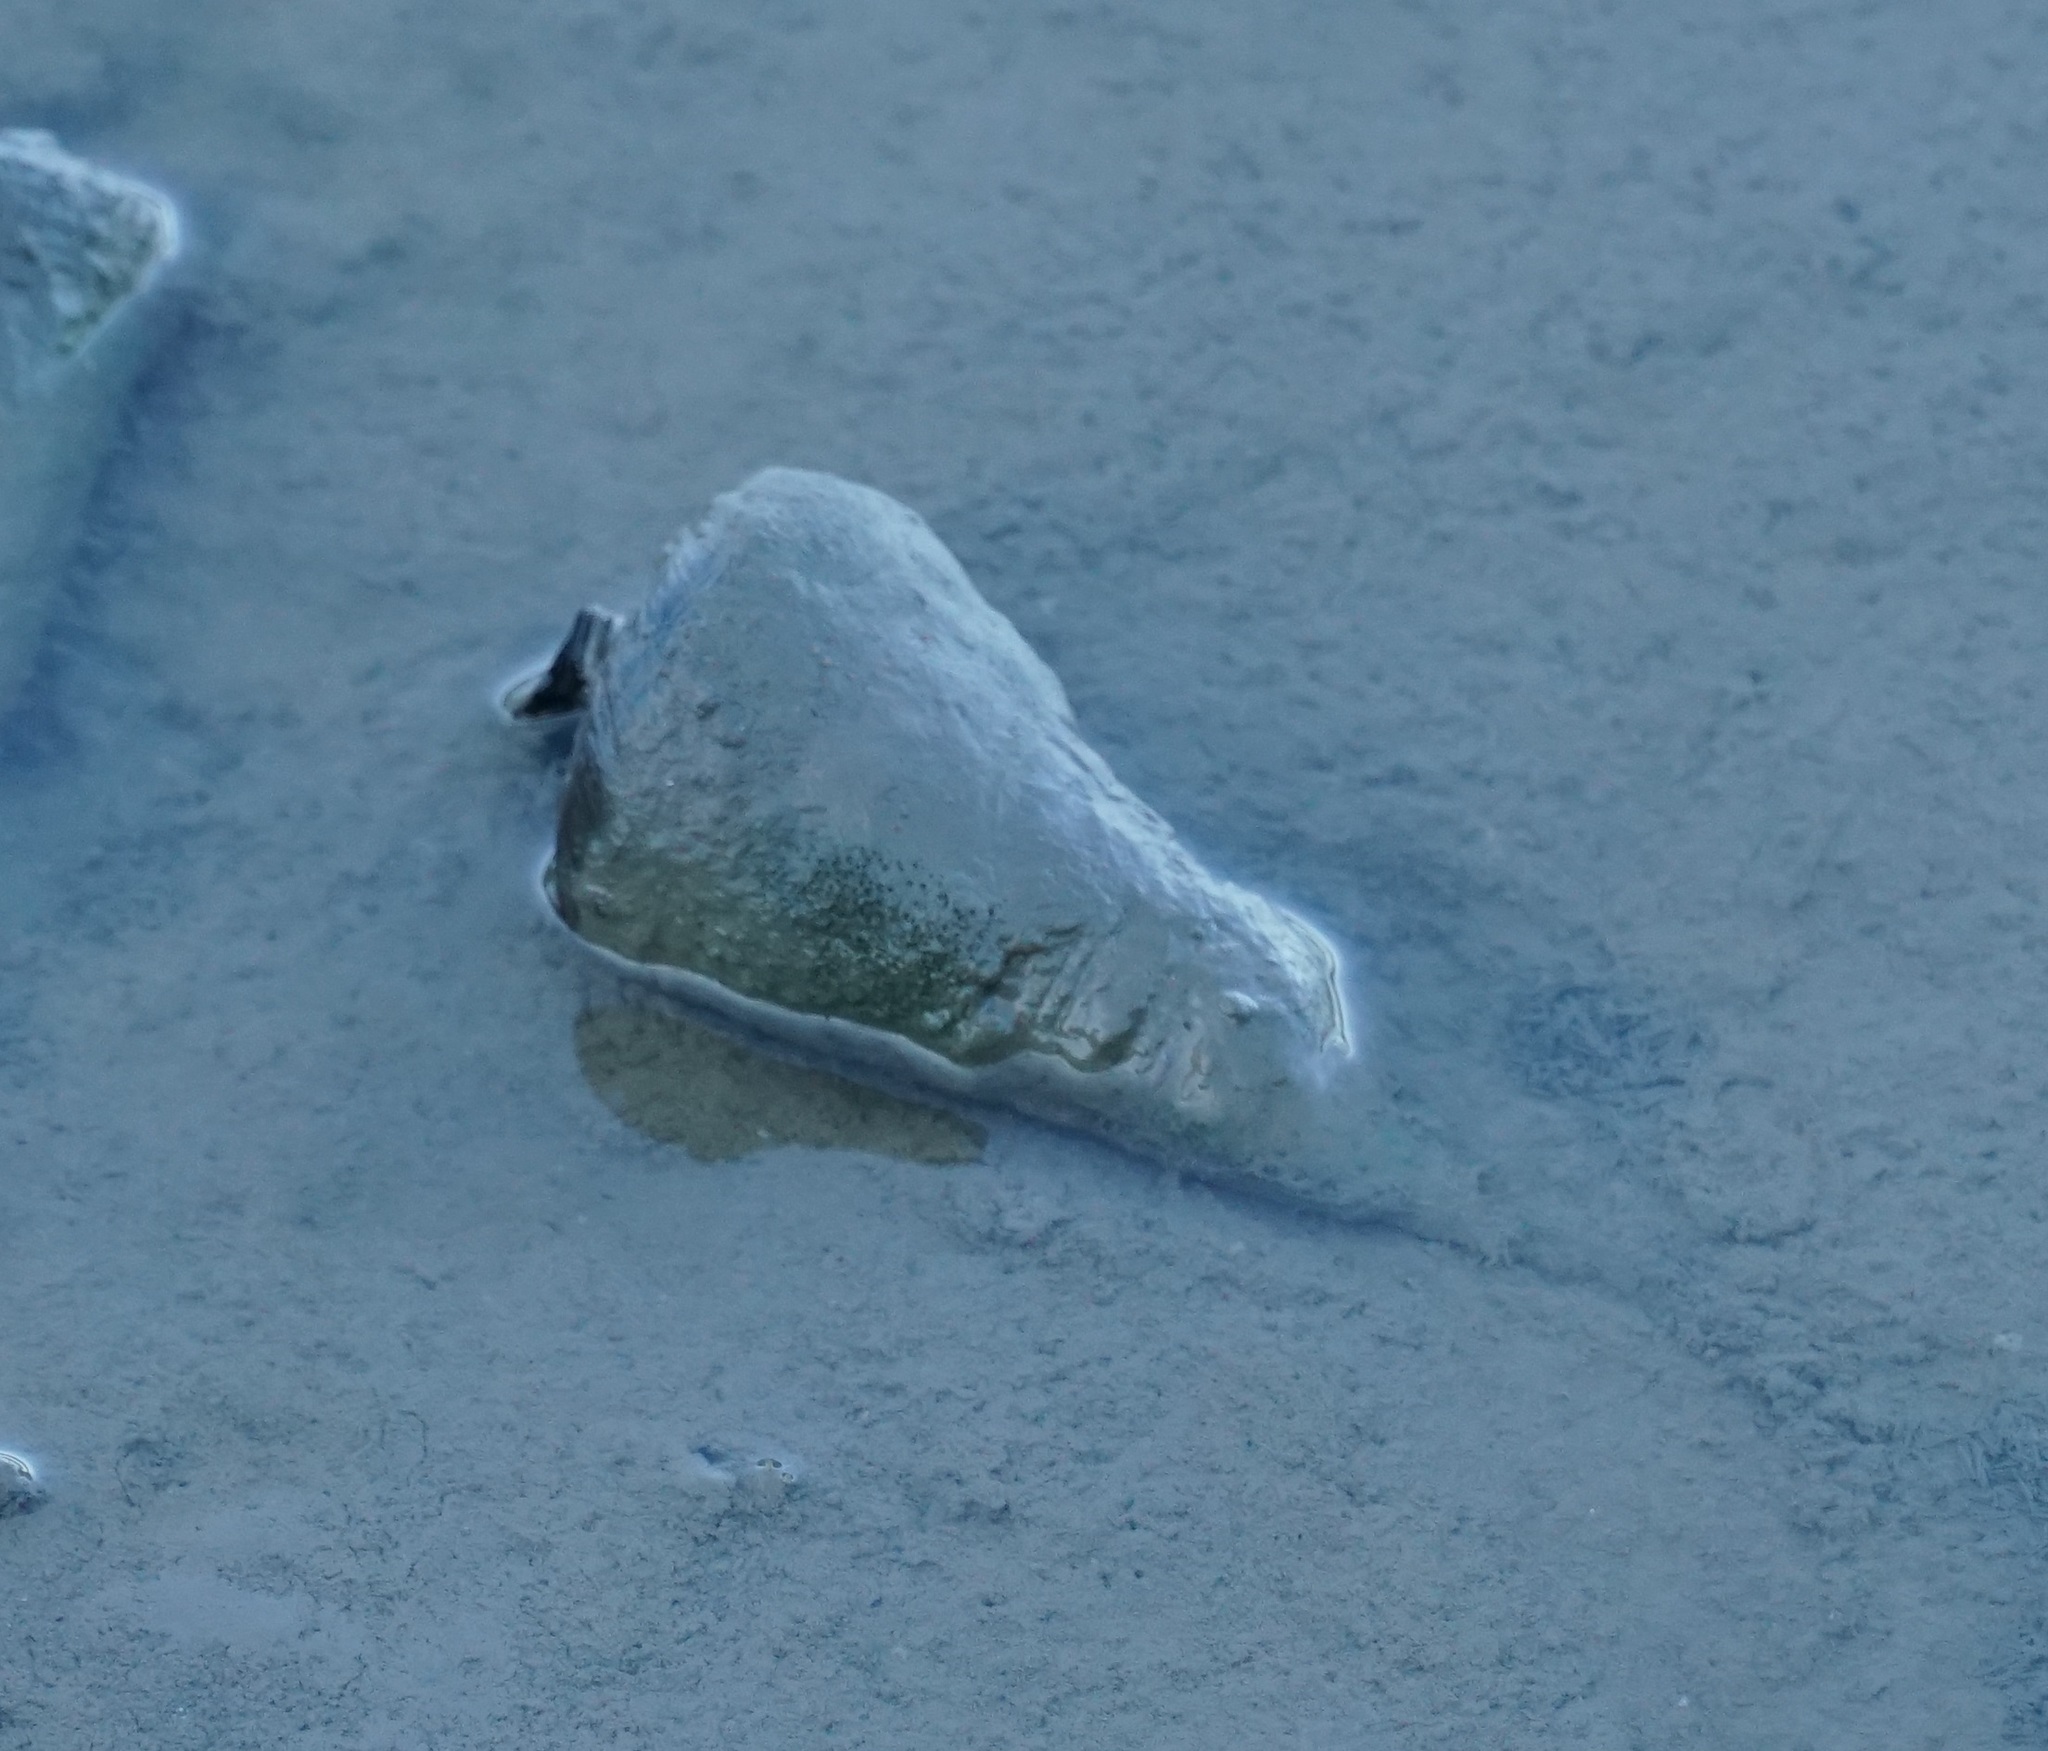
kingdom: Animalia
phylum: Mollusca
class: Gastropoda
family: Potamididae
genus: Telescopium
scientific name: Telescopium telescopium
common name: Telescope creeper
